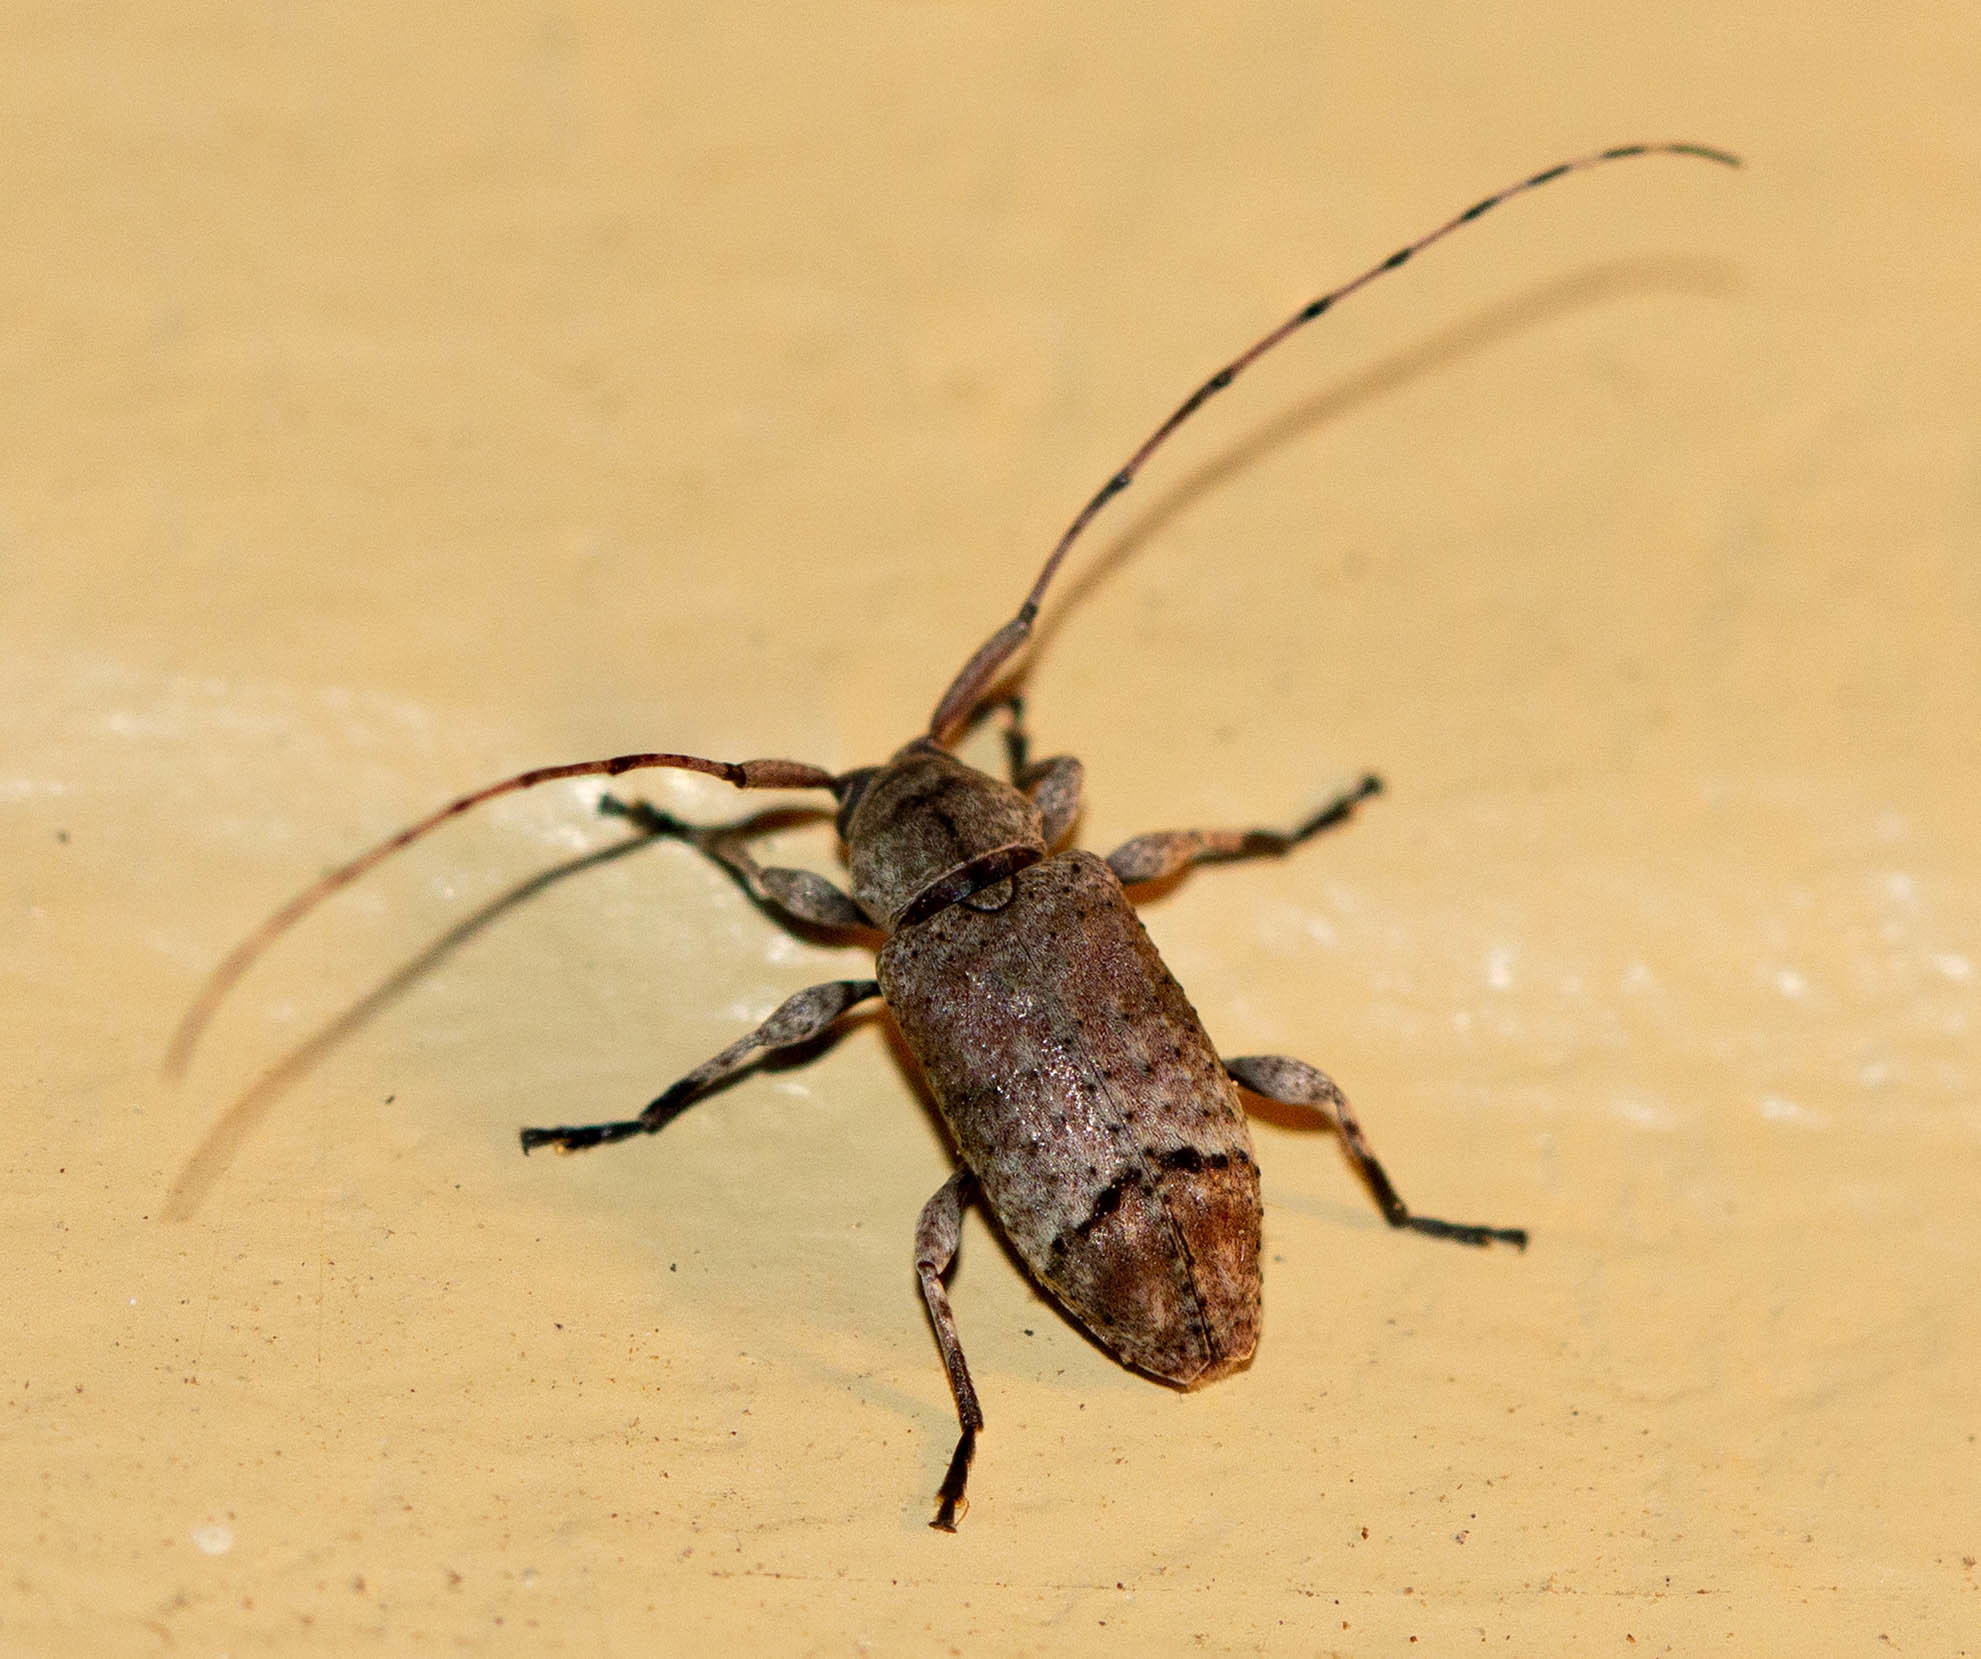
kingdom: Animalia
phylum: Arthropoda
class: Insecta
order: Coleoptera
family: Cerambycidae
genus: Sternidius
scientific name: Sternidius mimeticus
